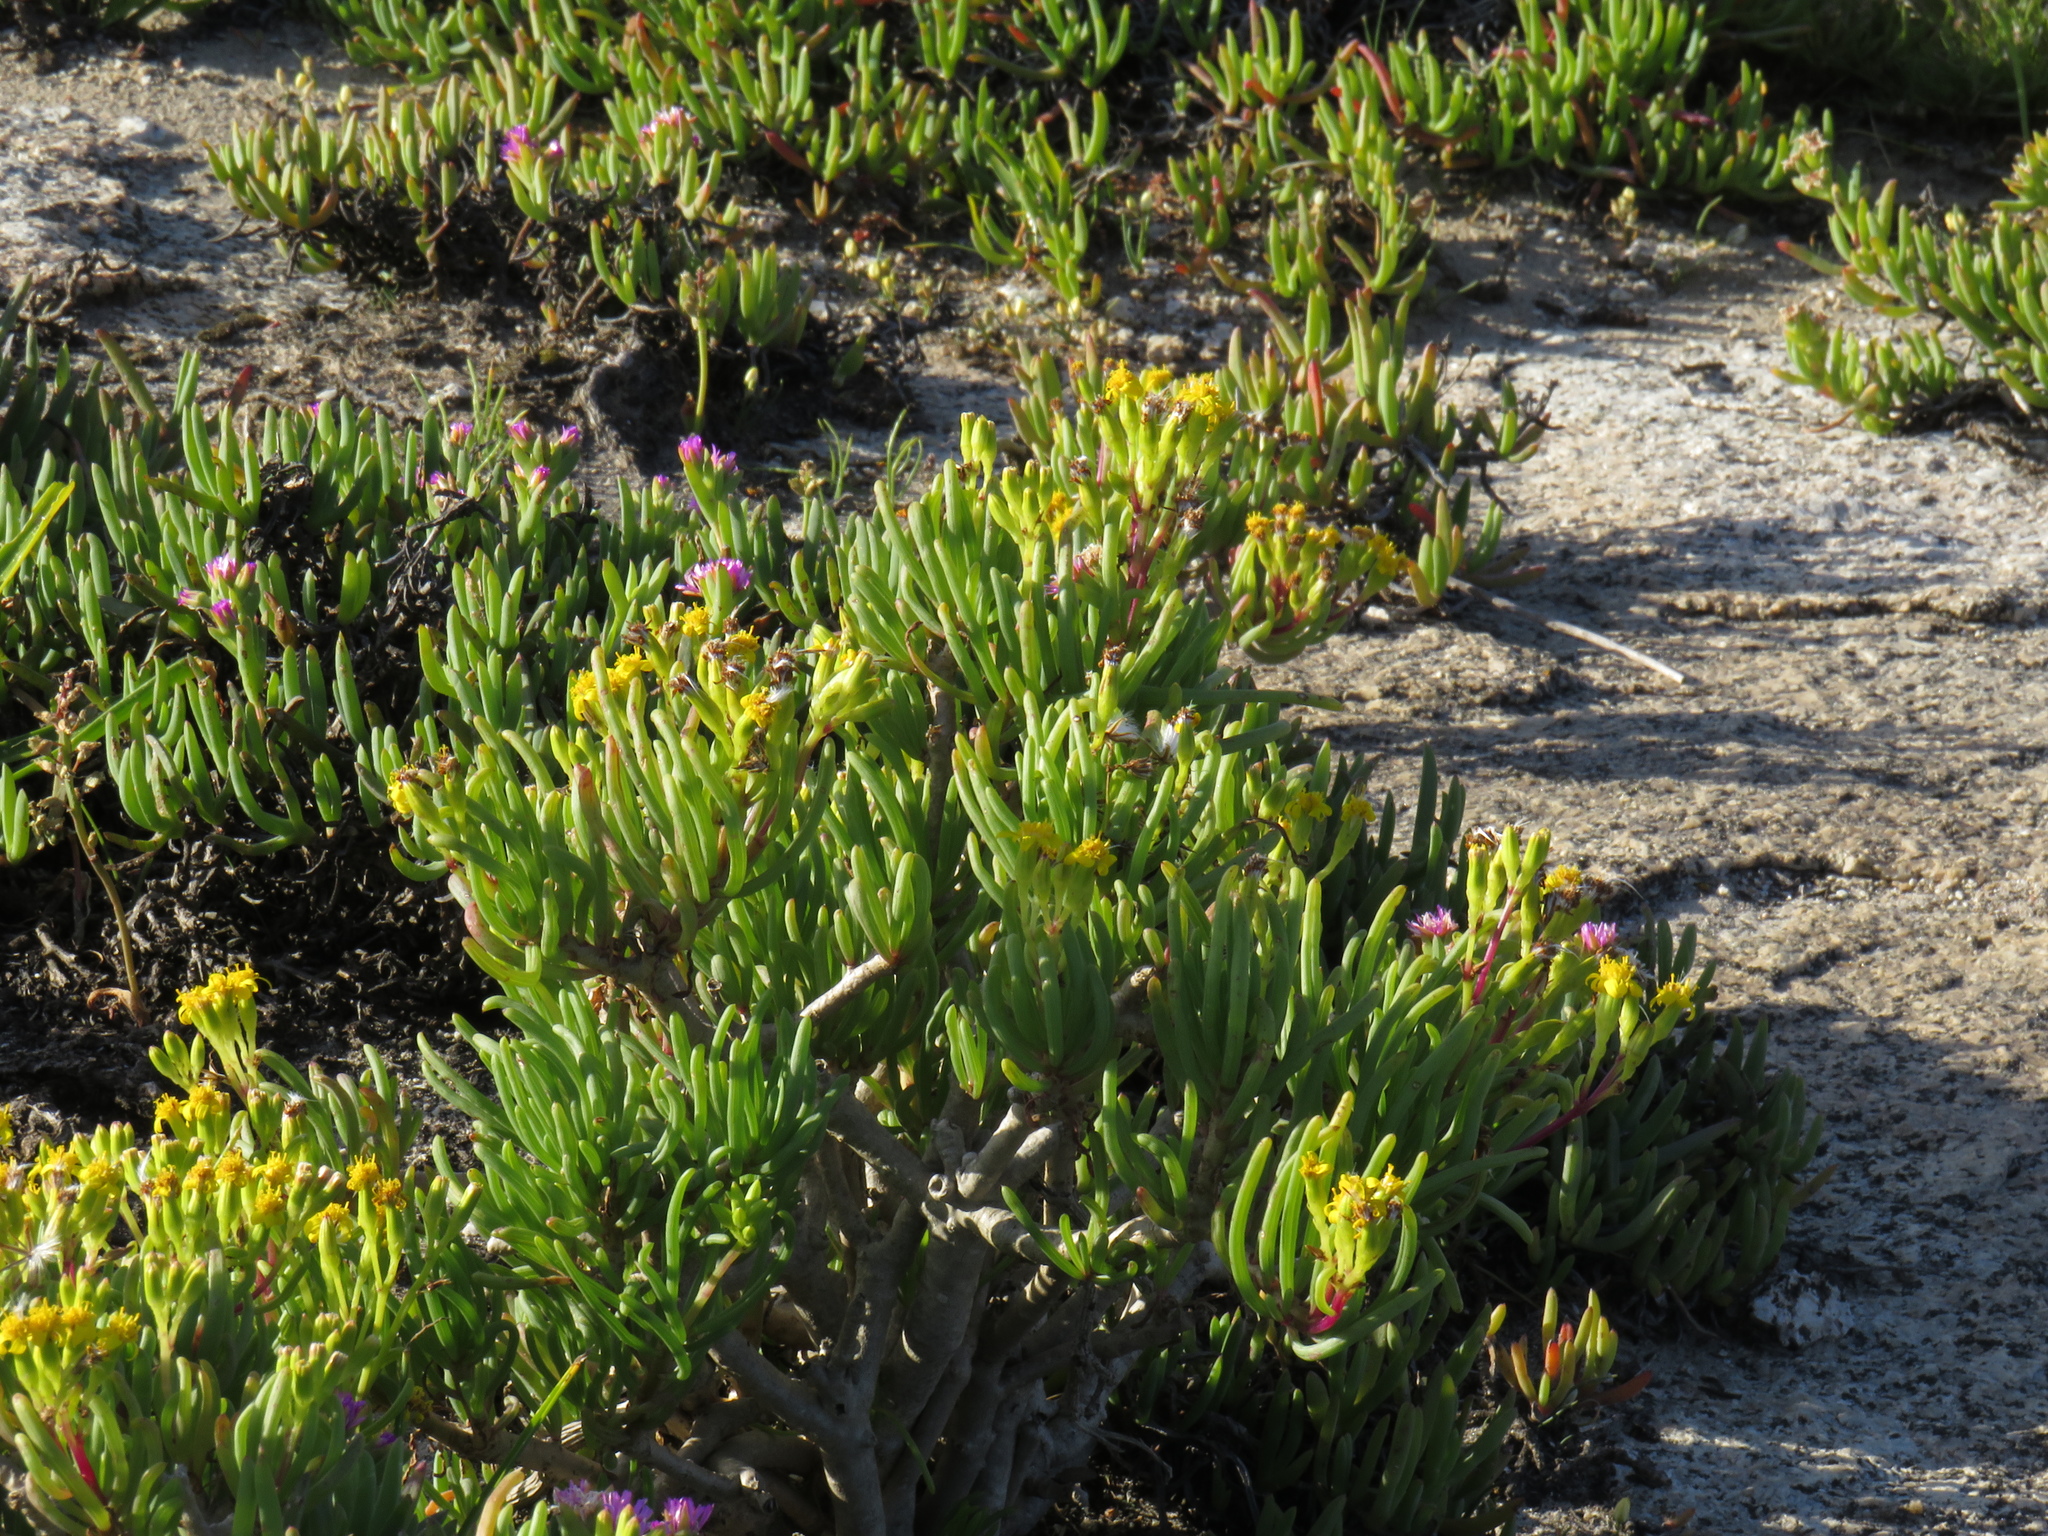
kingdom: Plantae
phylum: Tracheophyta
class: Magnoliopsida
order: Asterales
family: Asteraceae
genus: Curio
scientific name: Curio corymbifer
